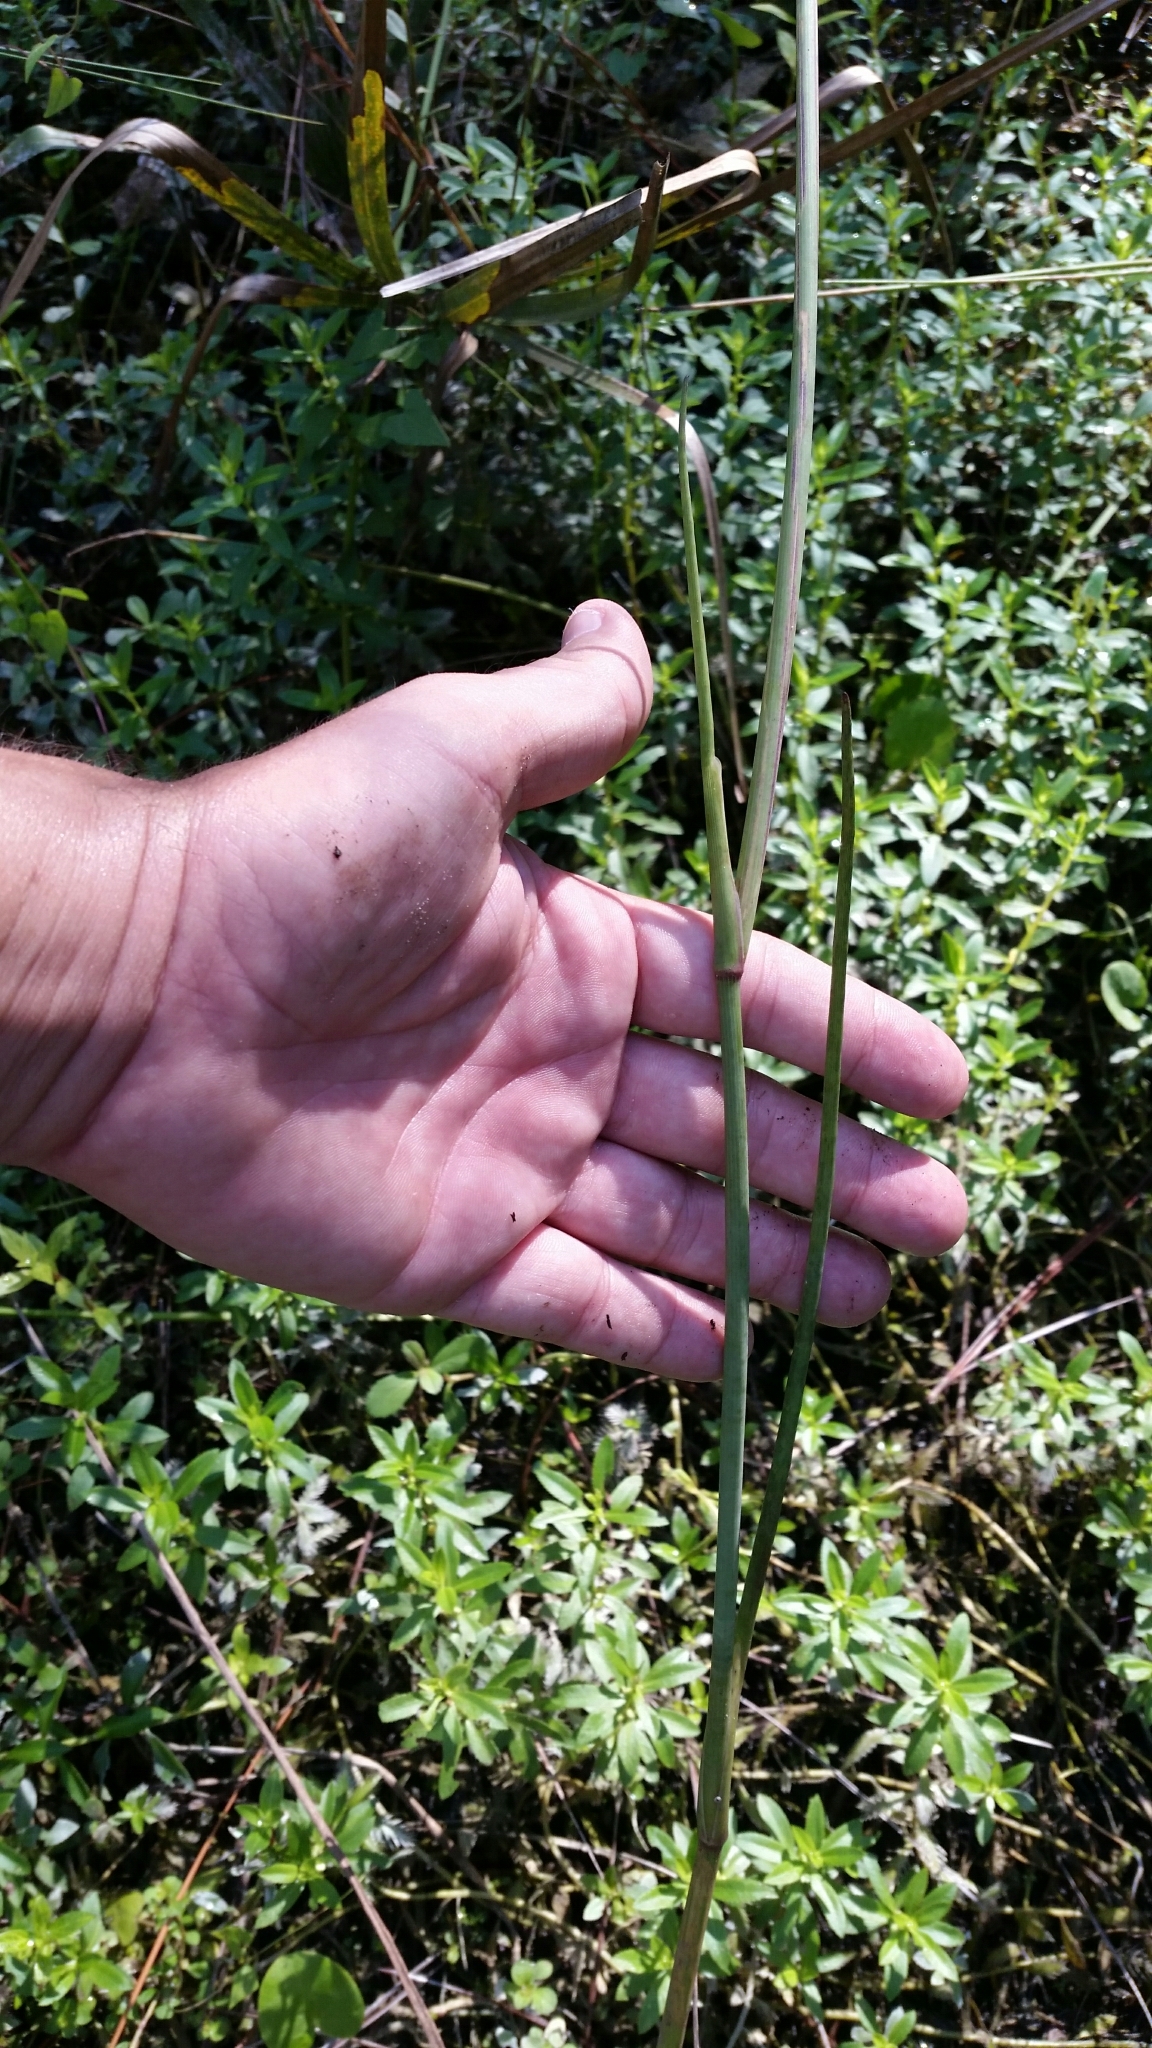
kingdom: Plantae
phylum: Tracheophyta
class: Magnoliopsida
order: Apiales
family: Apiaceae
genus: Tiedemannia
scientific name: Tiedemannia filiformis
